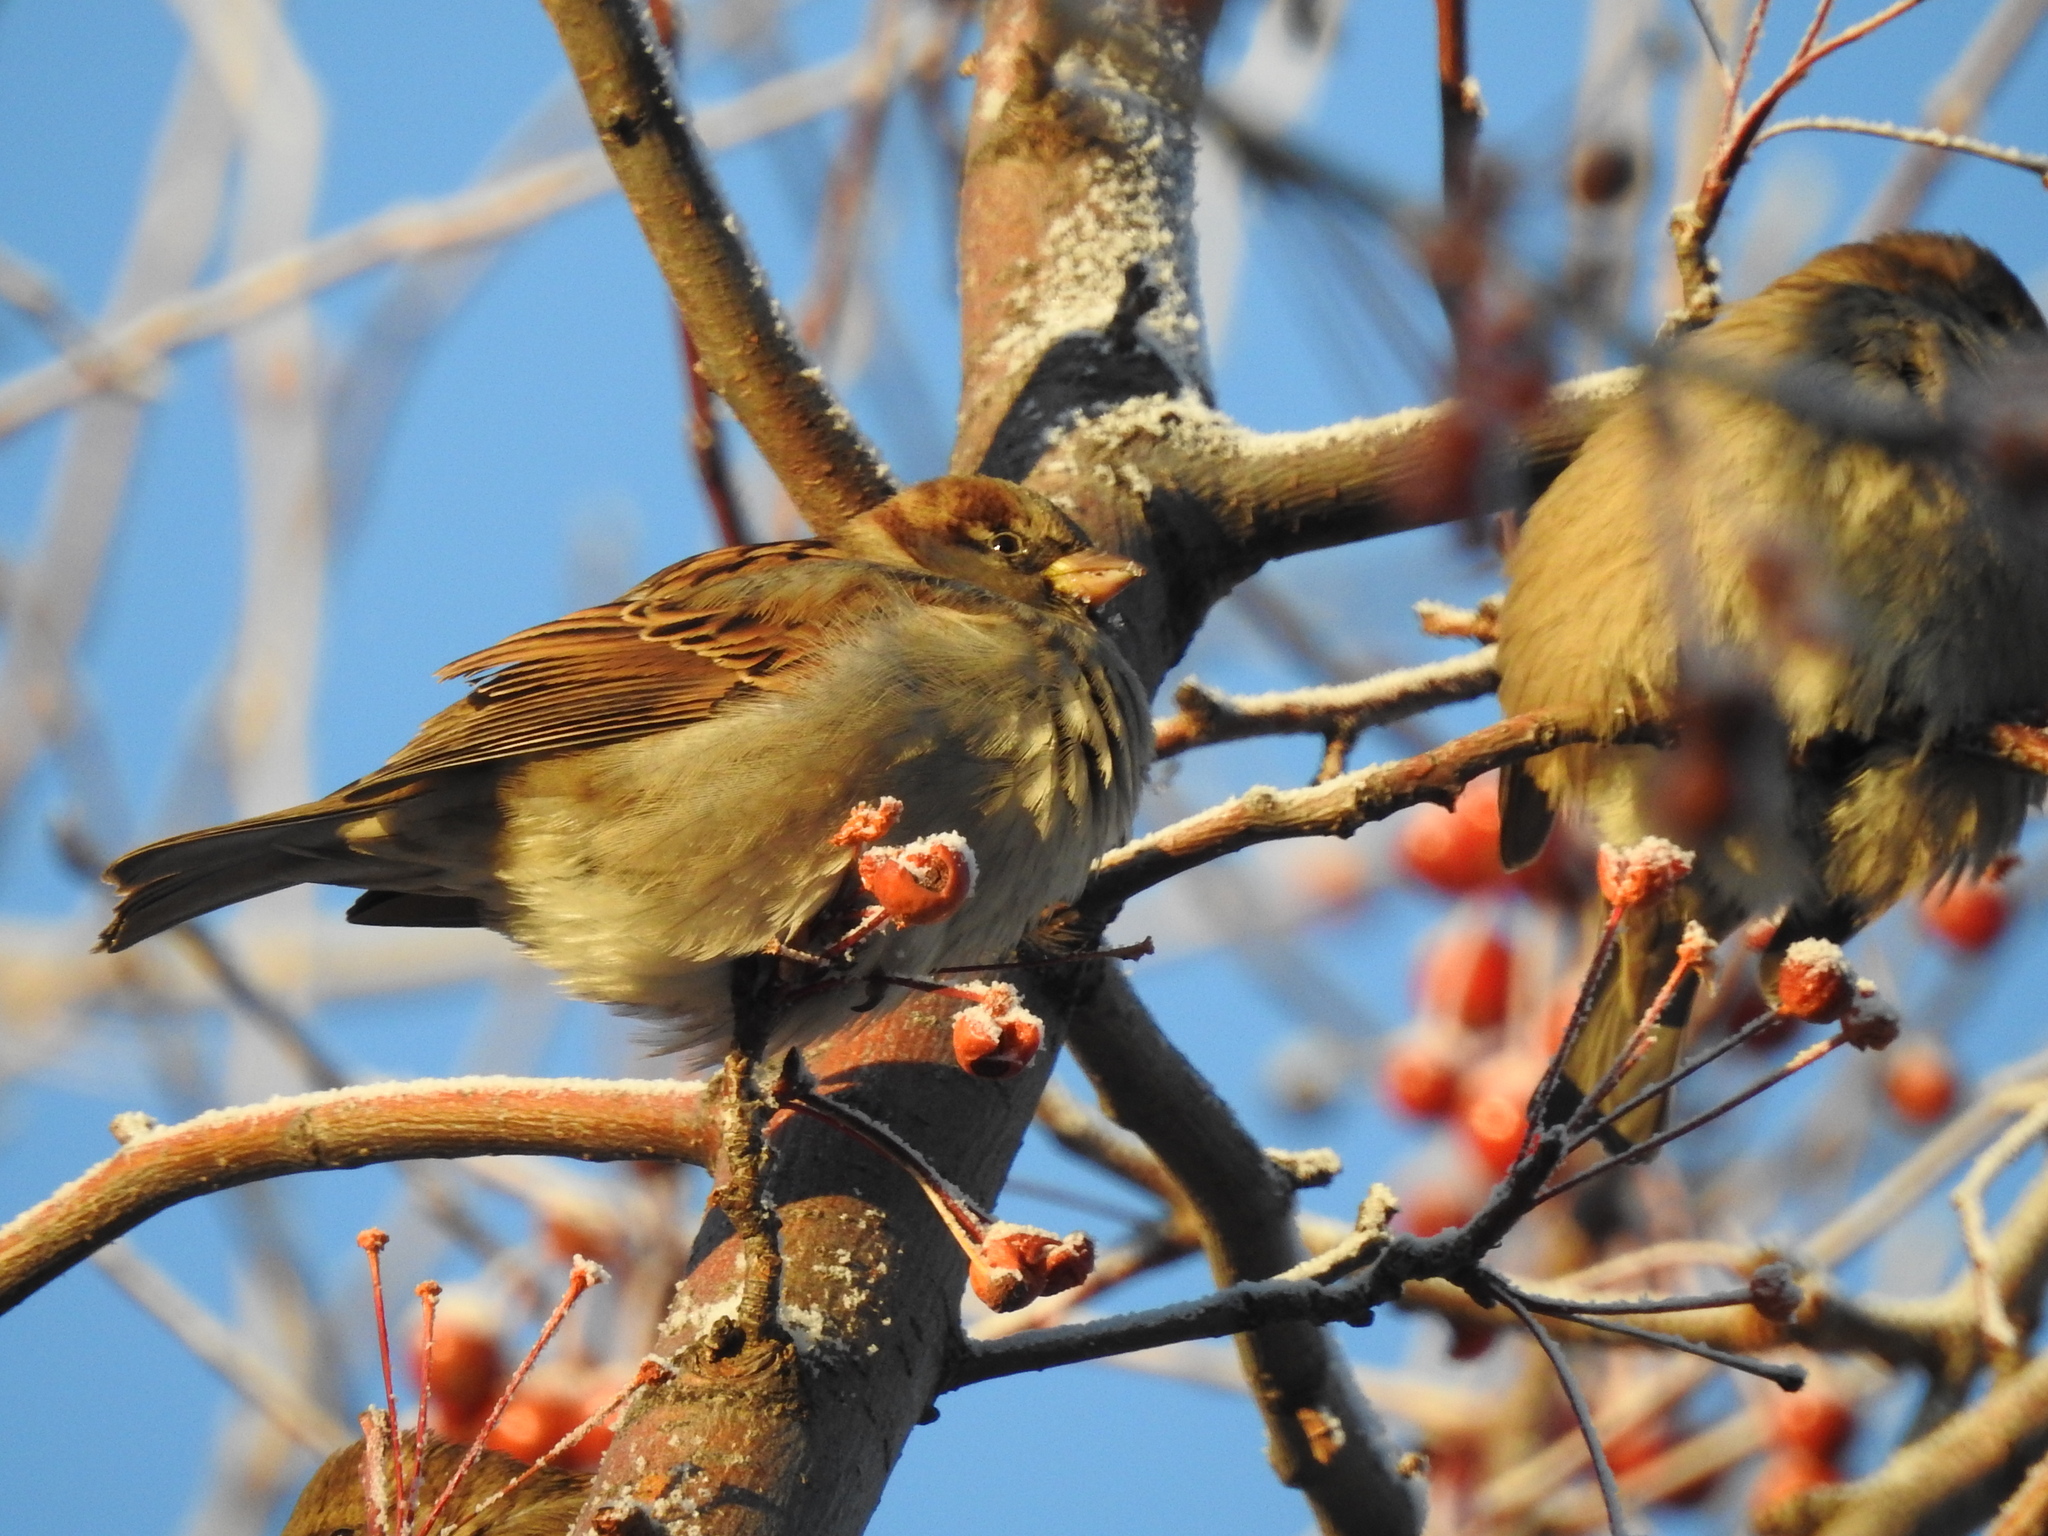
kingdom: Animalia
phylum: Chordata
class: Aves
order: Passeriformes
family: Passeridae
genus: Passer
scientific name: Passer domesticus
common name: House sparrow
